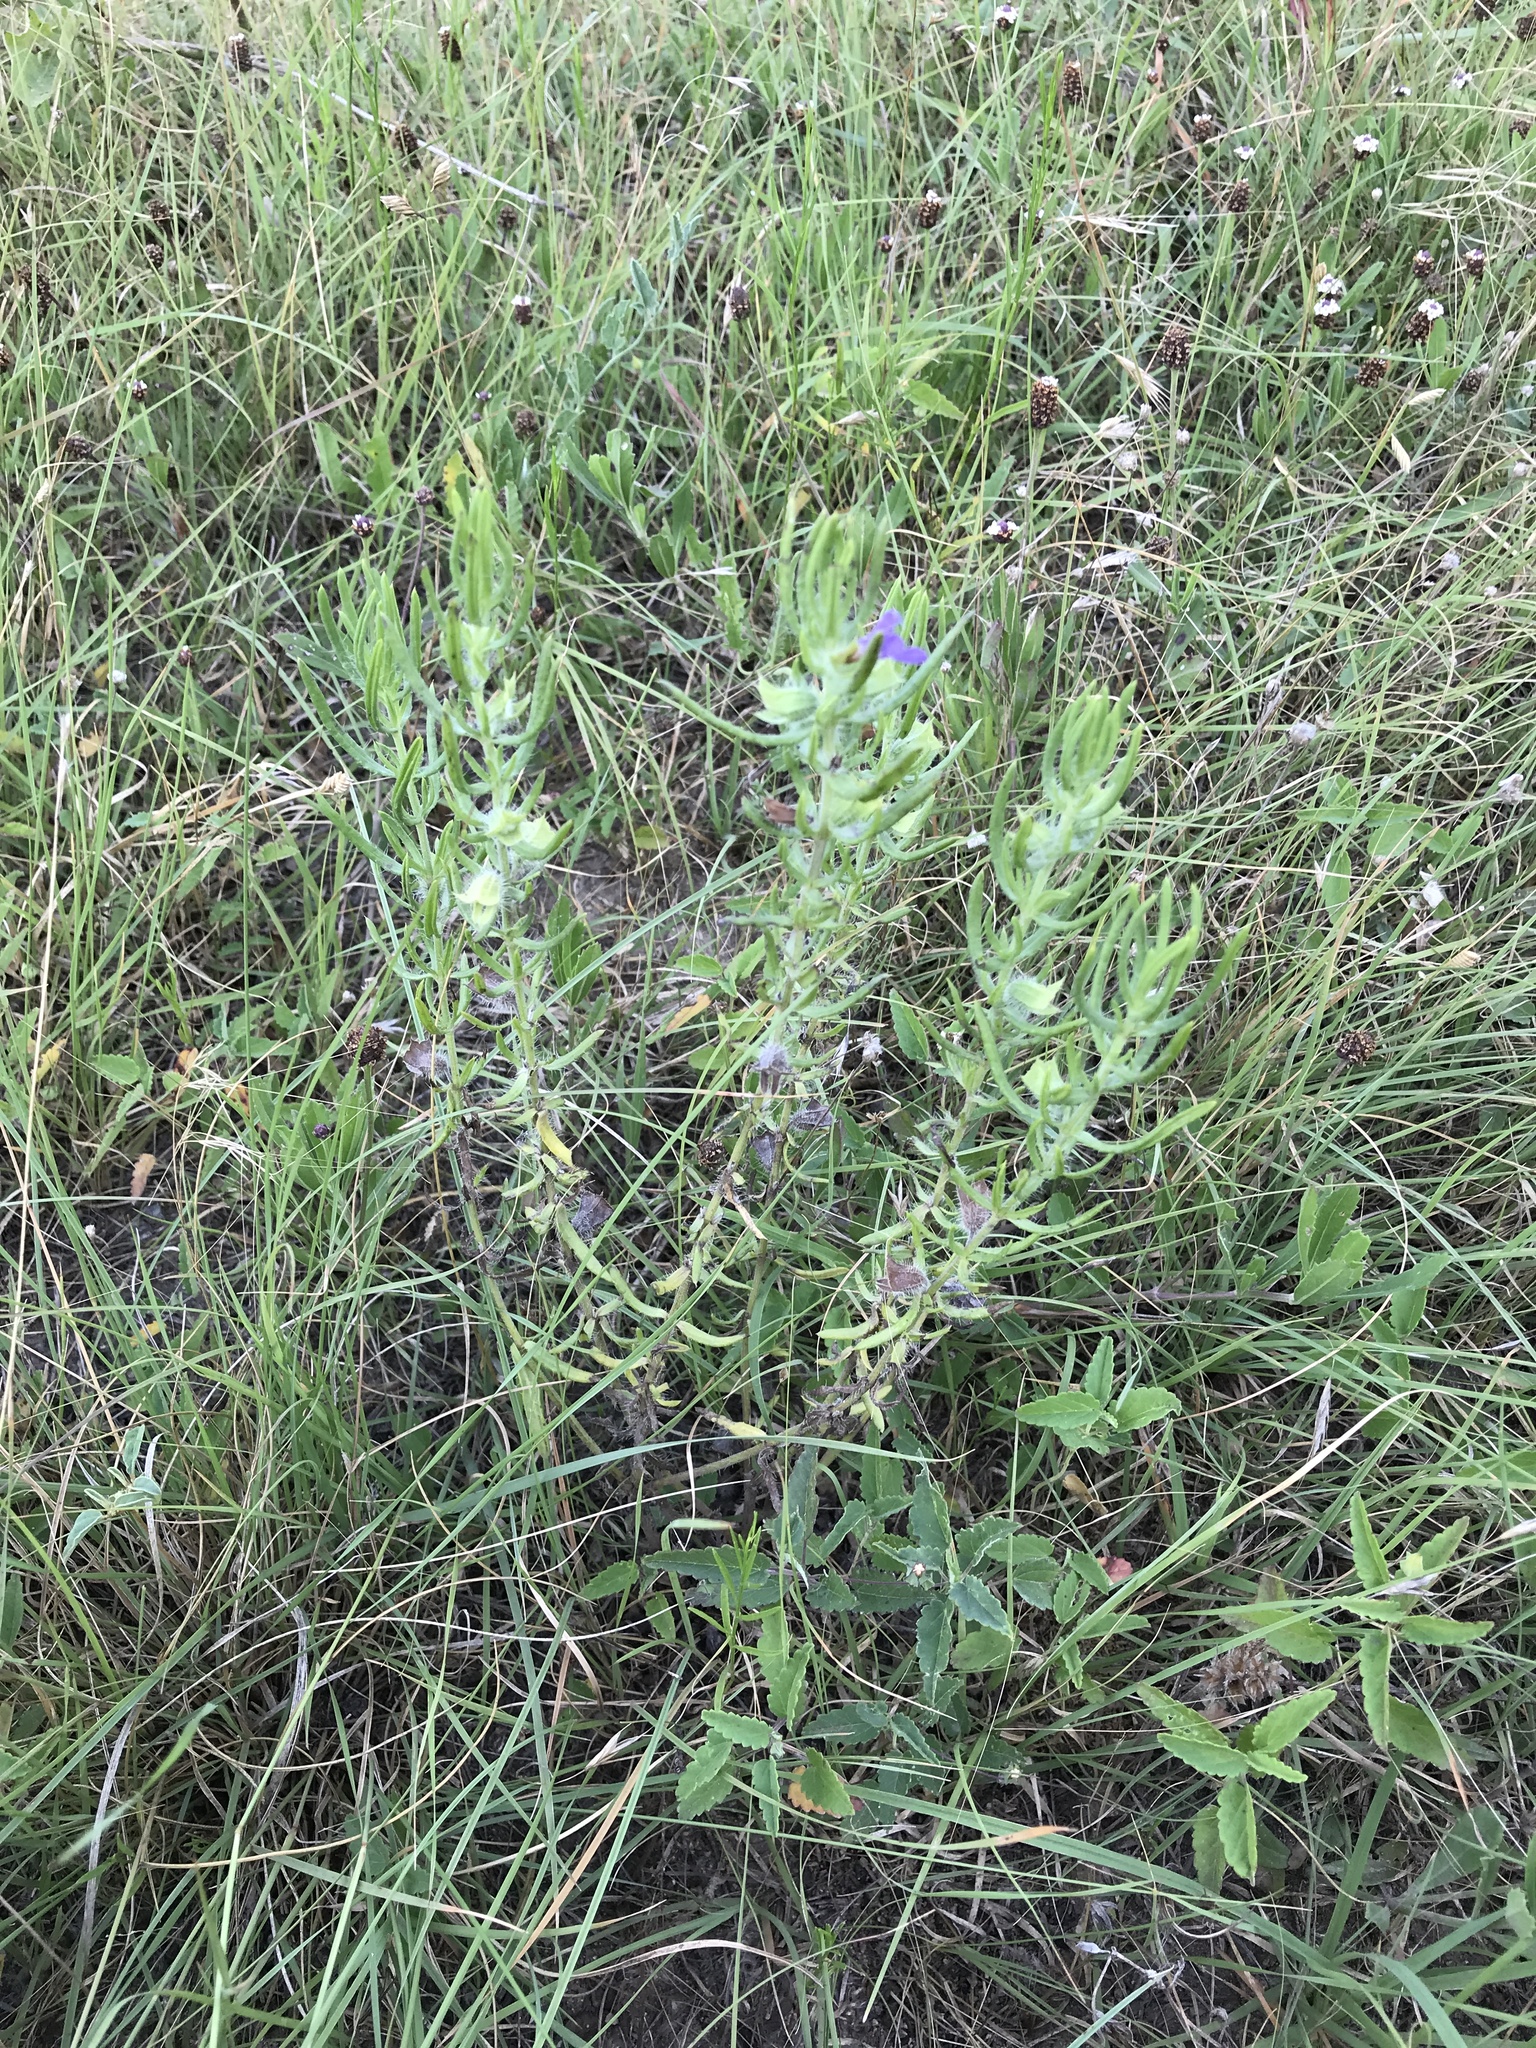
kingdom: Plantae
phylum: Tracheophyta
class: Magnoliopsida
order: Lamiales
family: Lamiaceae
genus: Salvia
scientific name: Salvia texana
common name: Texas sage
